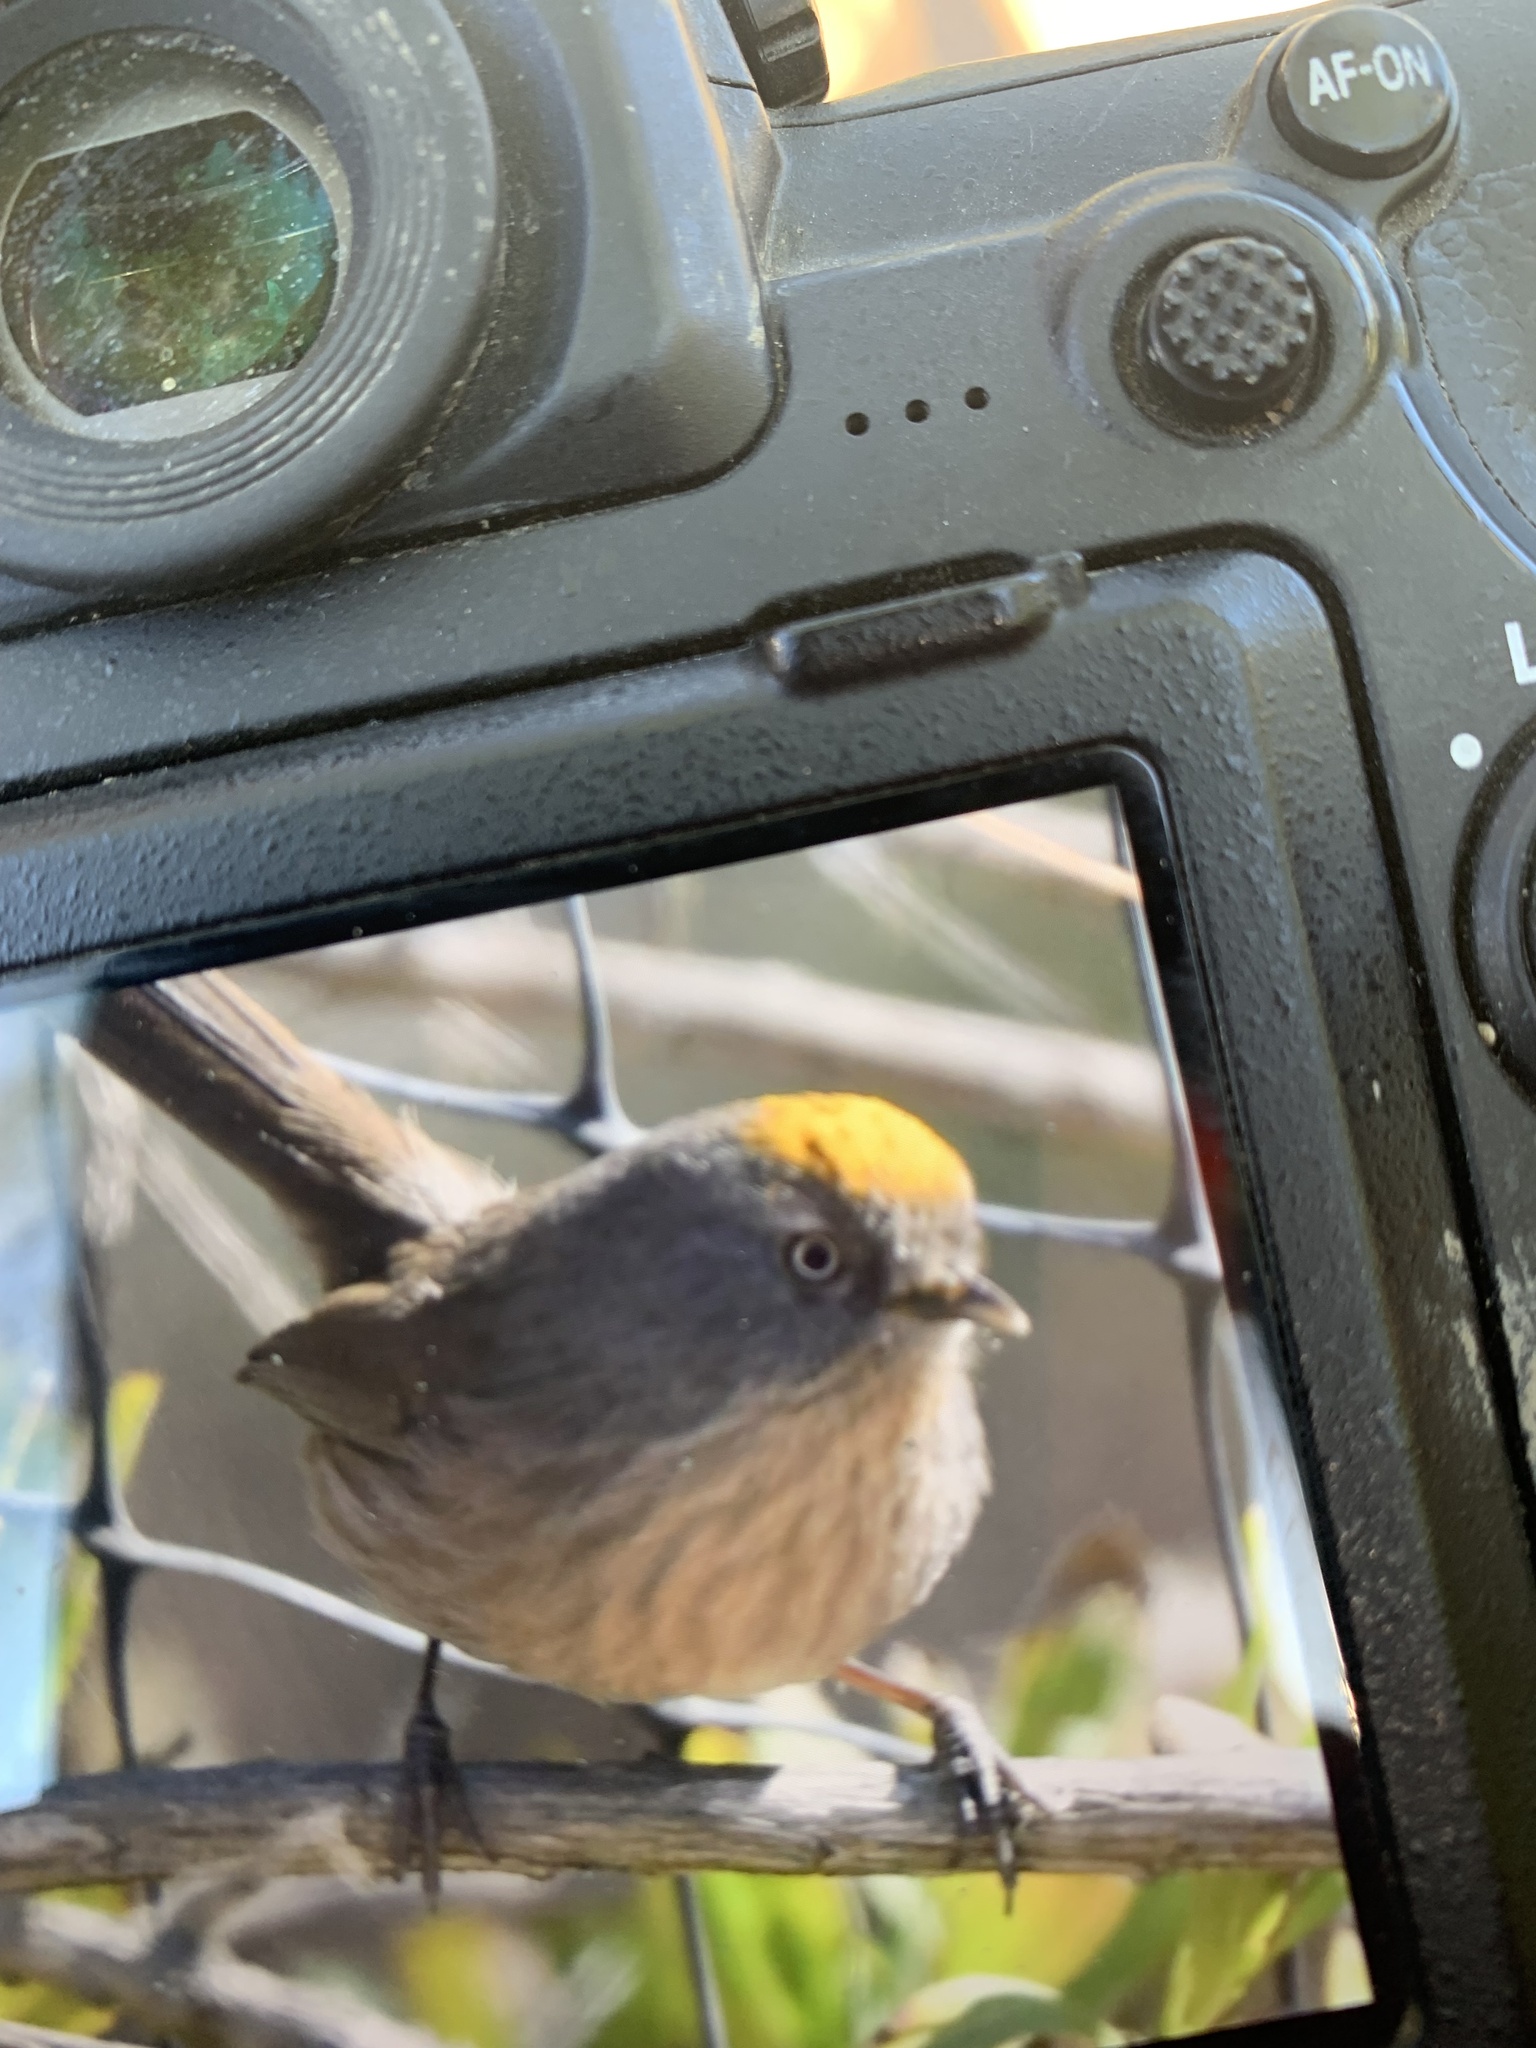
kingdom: Animalia
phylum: Chordata
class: Aves
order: Passeriformes
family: Sylviidae
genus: Chamaea
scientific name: Chamaea fasciata
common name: Wrentit
